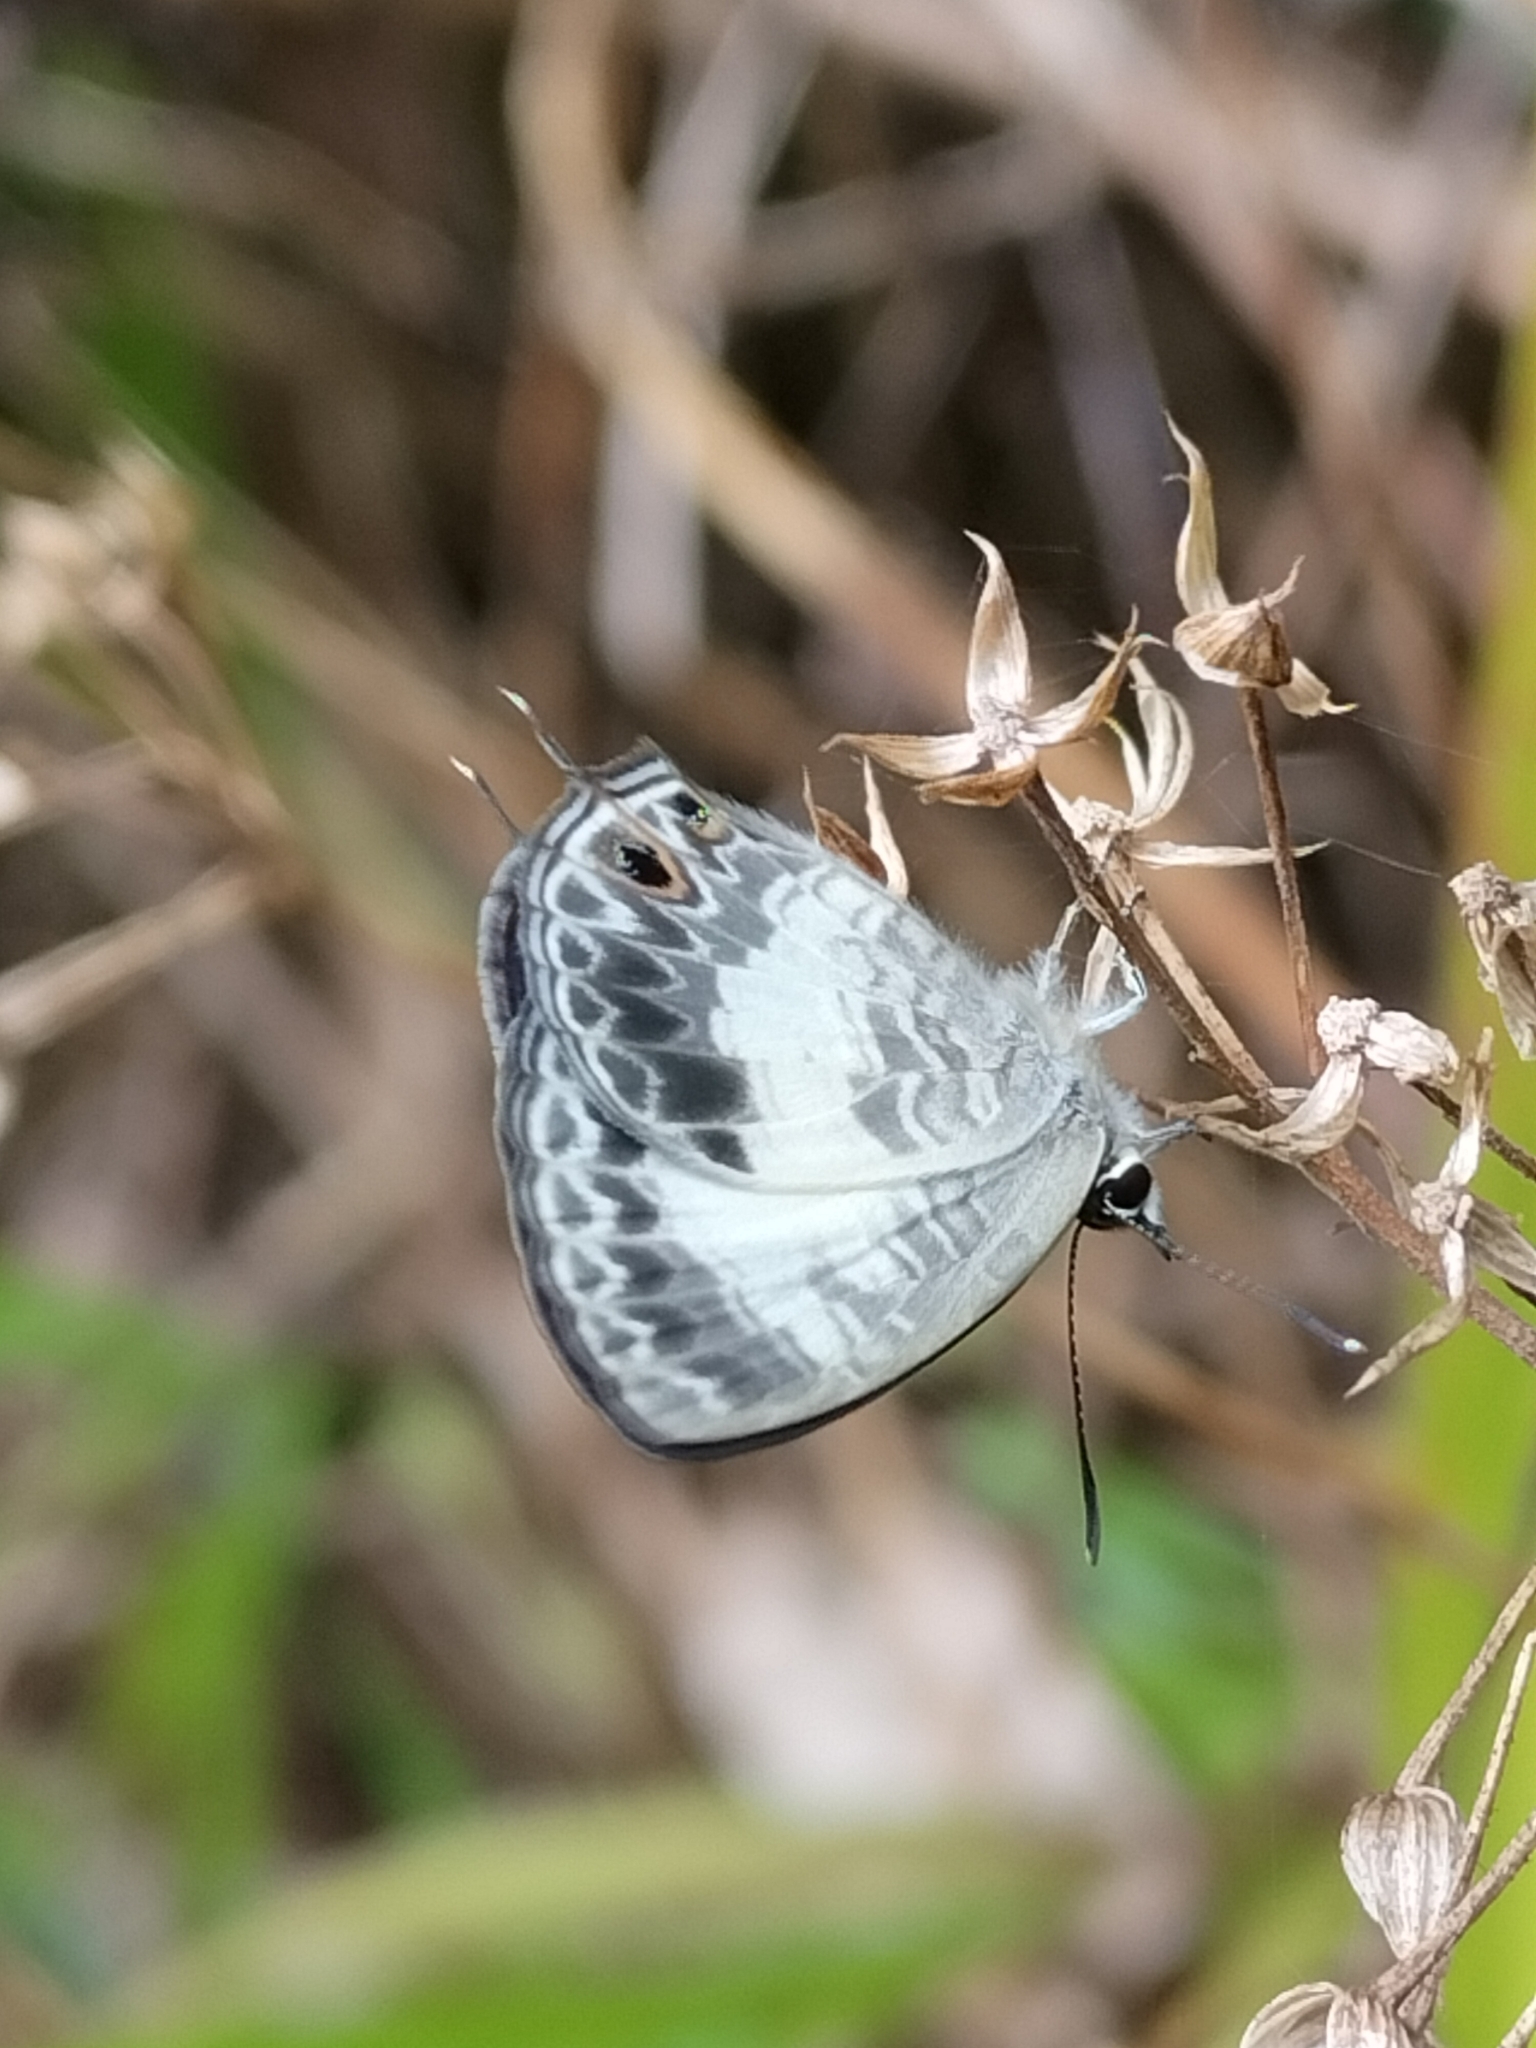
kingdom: Animalia
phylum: Arthropoda
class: Insecta
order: Lepidoptera
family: Lycaenidae
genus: Nacaduba
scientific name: Nacaduba kurava
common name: Transparent 6-line blue
